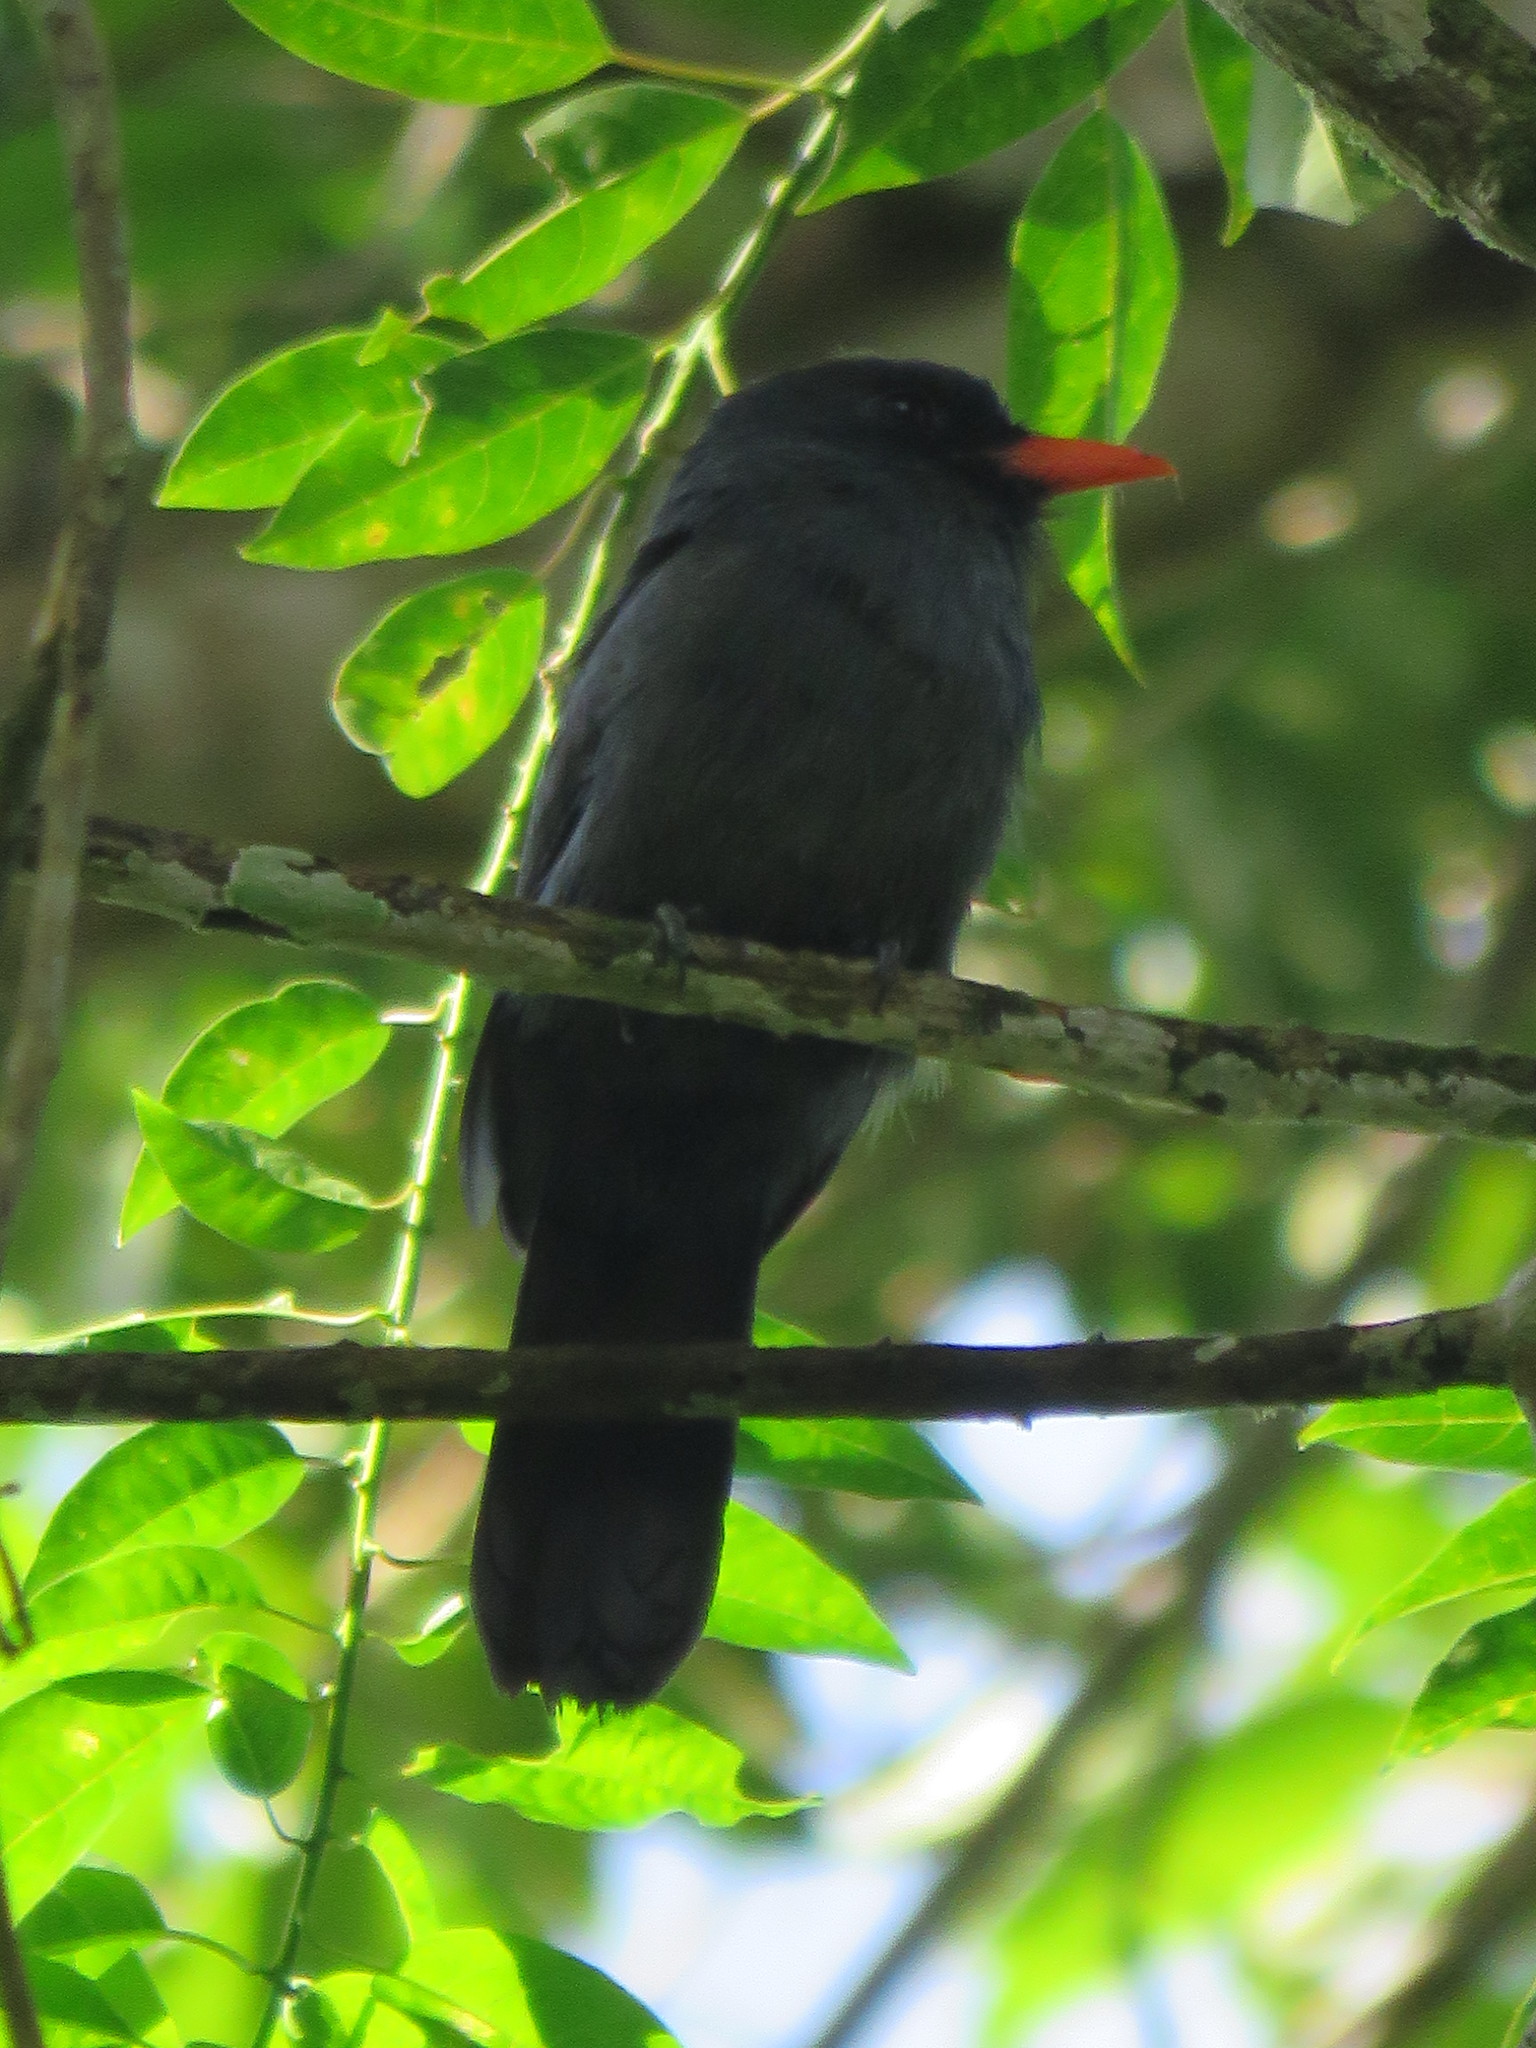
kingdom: Animalia
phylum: Chordata
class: Aves
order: Piciformes
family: Bucconidae
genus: Monasa
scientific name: Monasa nigrifrons
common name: Black-fronted nunbird
